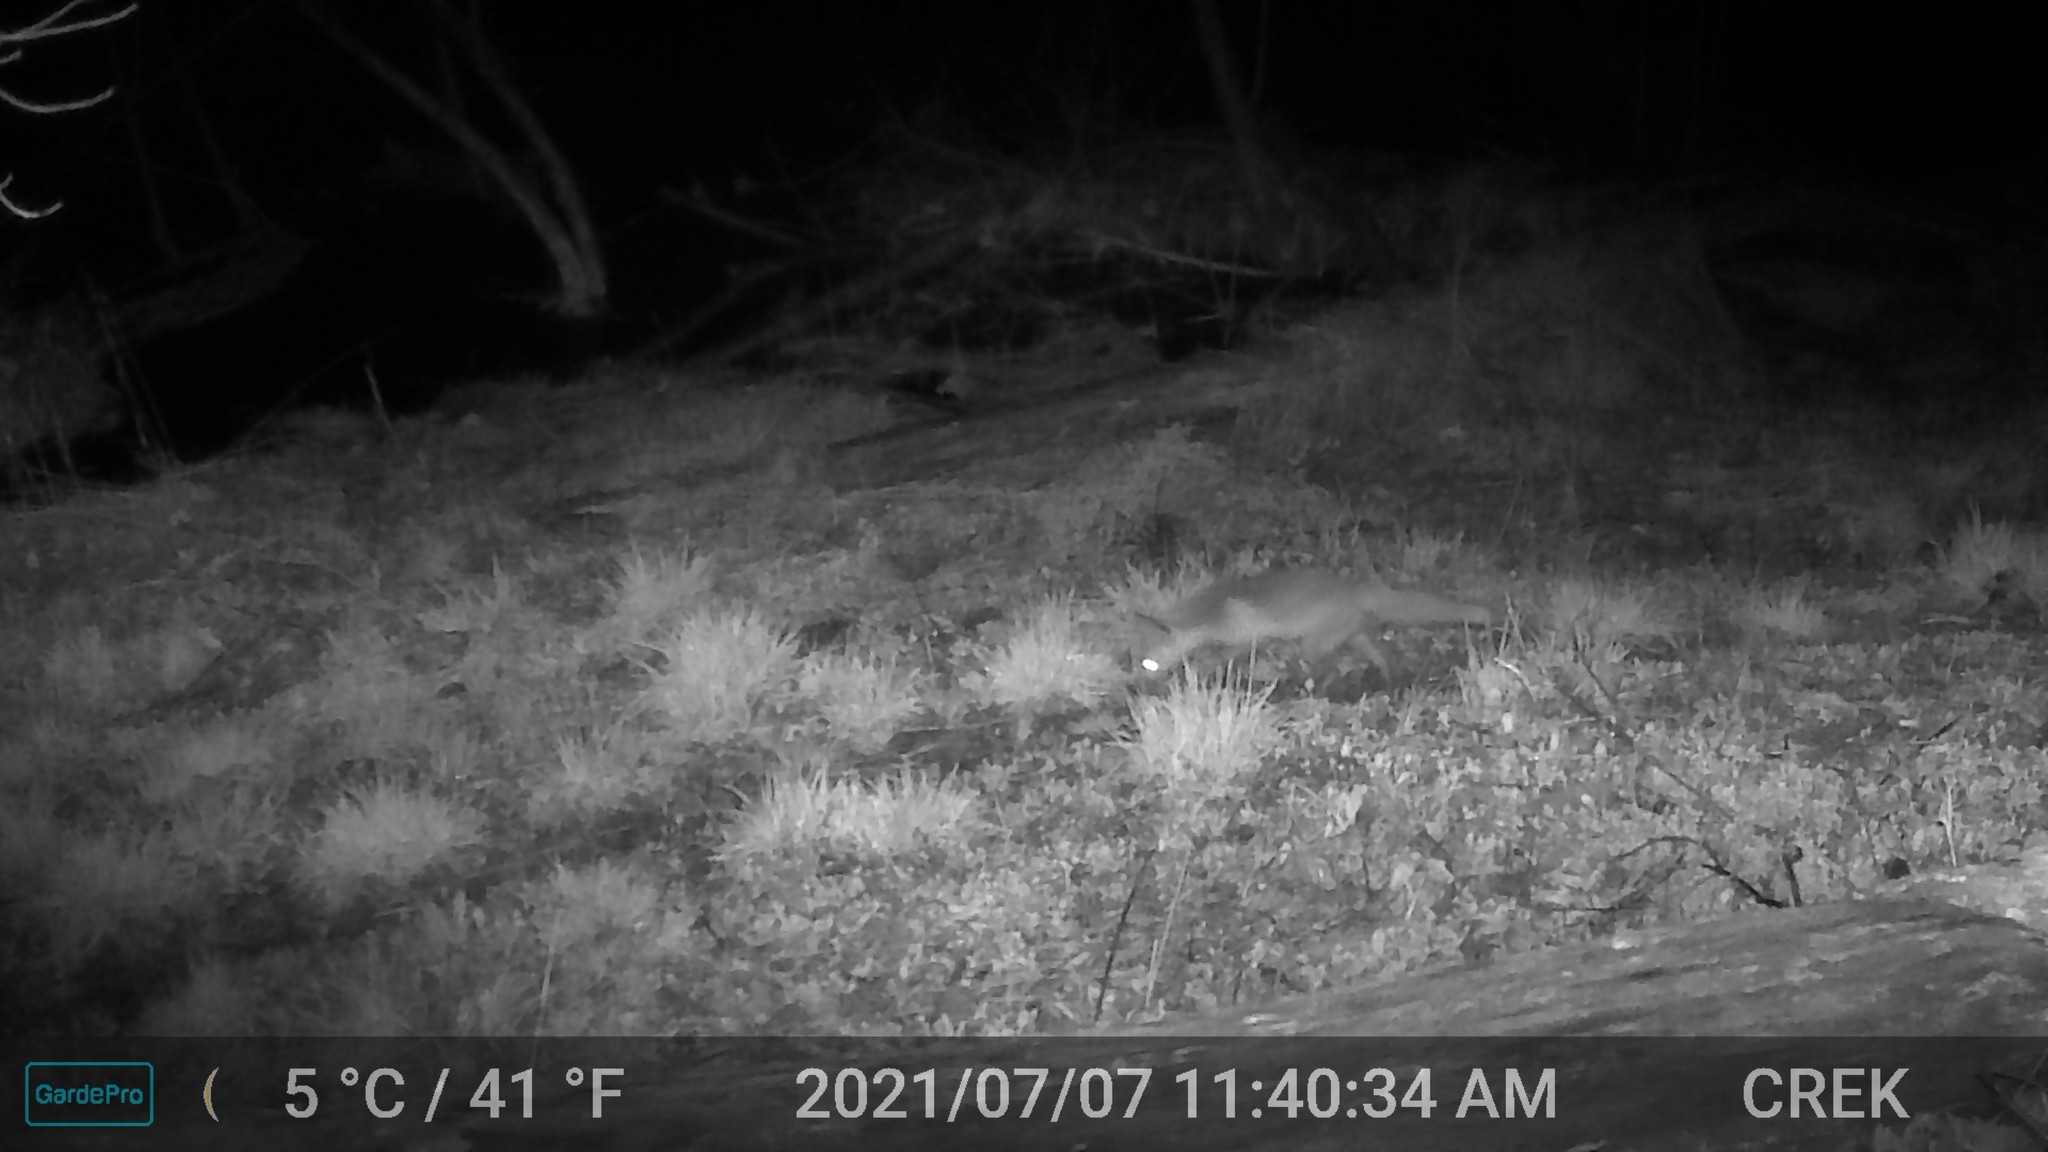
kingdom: Animalia
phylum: Chordata
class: Mammalia
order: Carnivora
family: Canidae
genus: Vulpes
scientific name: Vulpes vulpes
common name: Red fox
